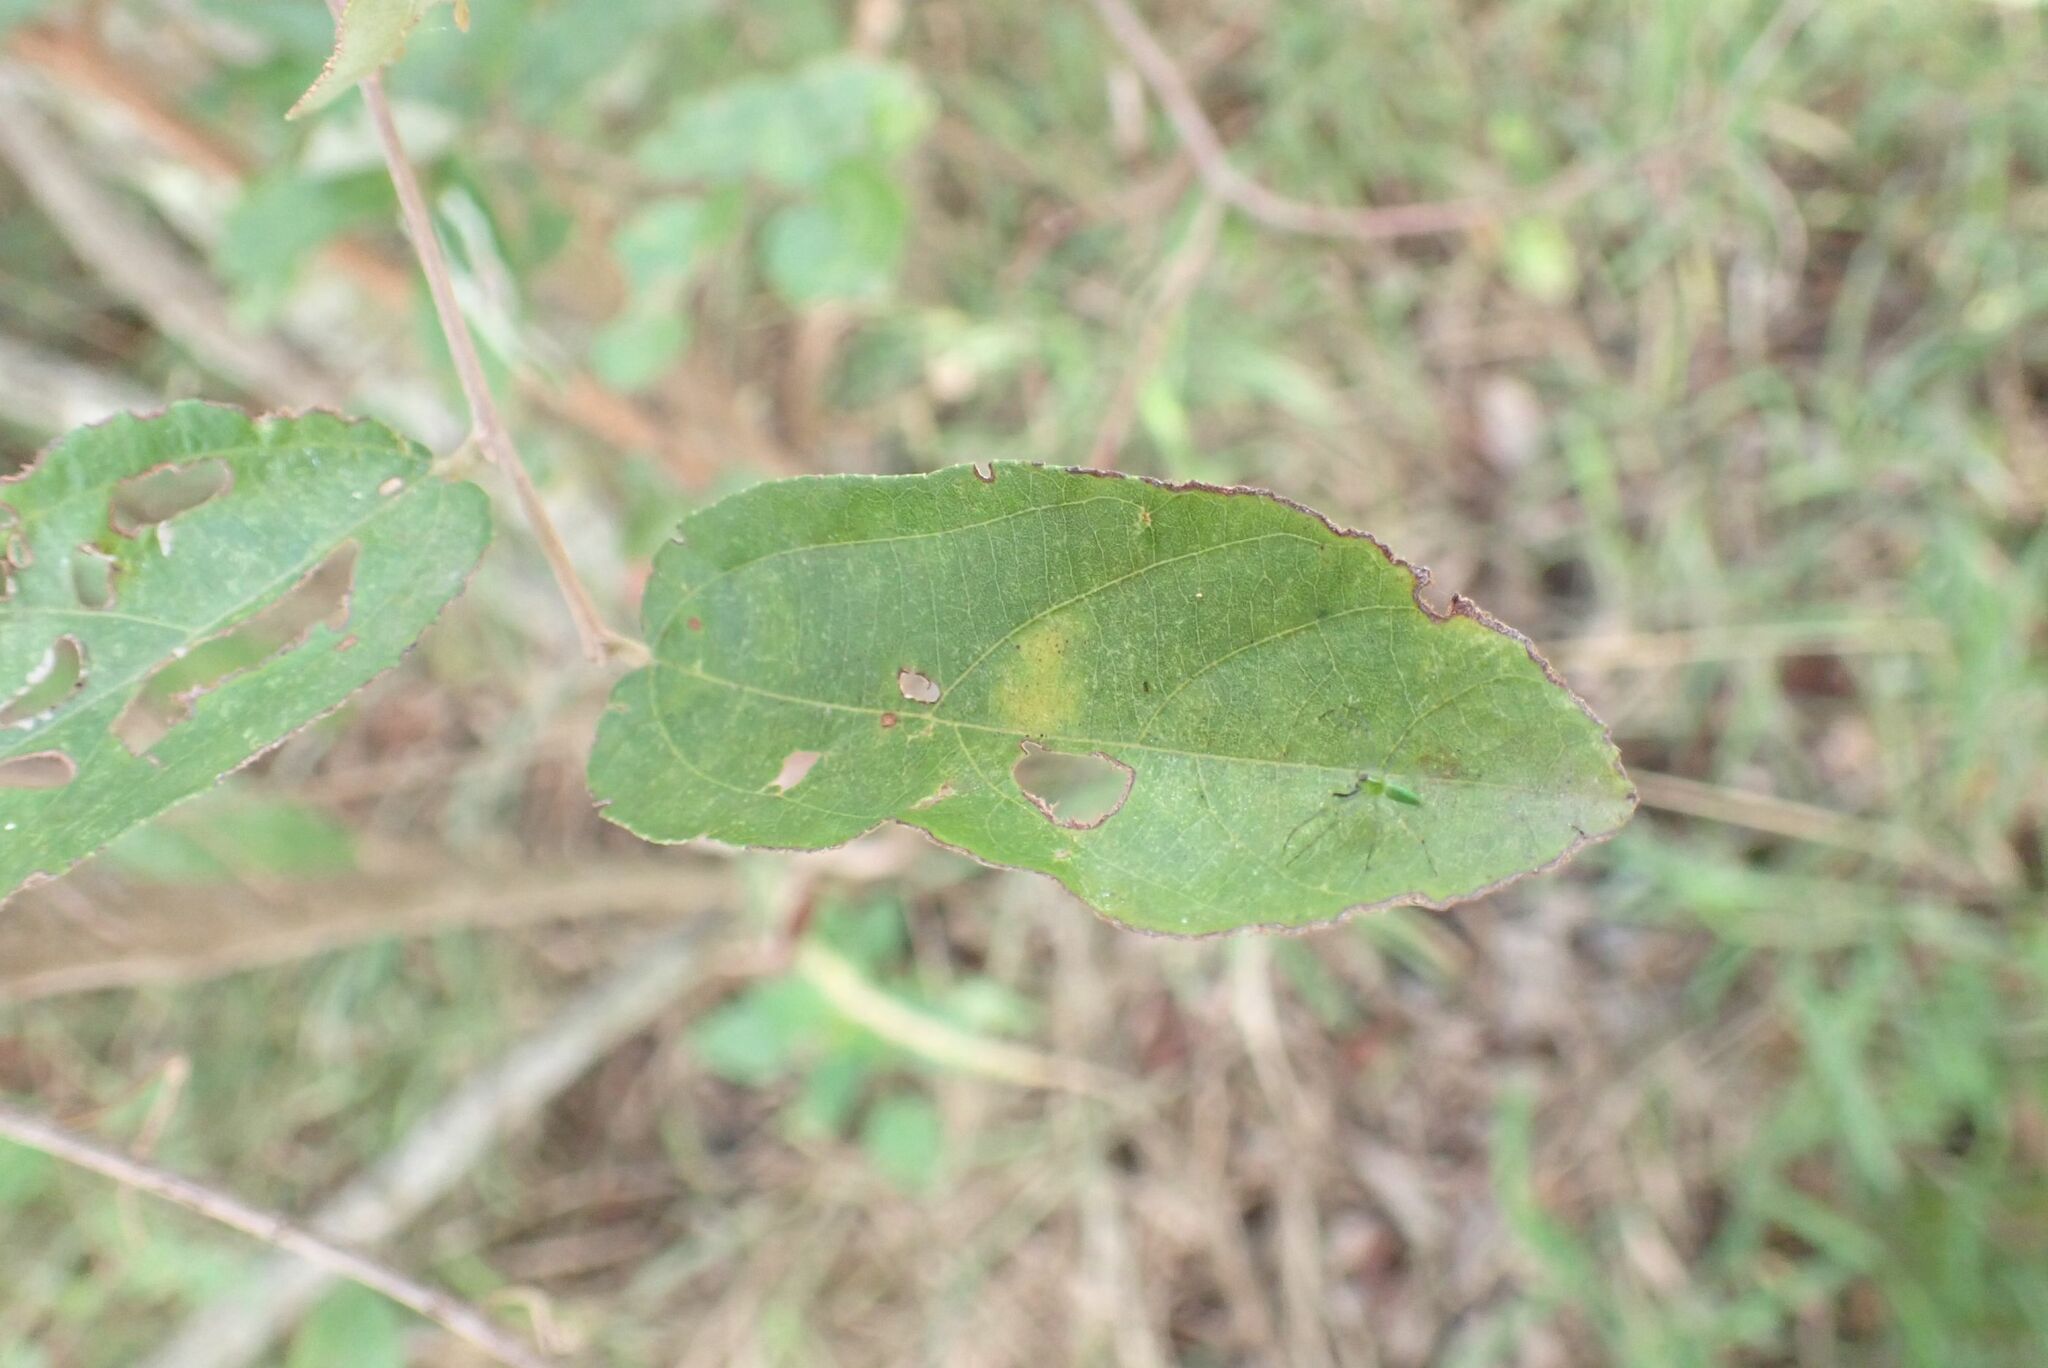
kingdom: Plantae
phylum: Tracheophyta
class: Magnoliopsida
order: Malvales
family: Malvaceae
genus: Grewia
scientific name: Grewia bicolor
